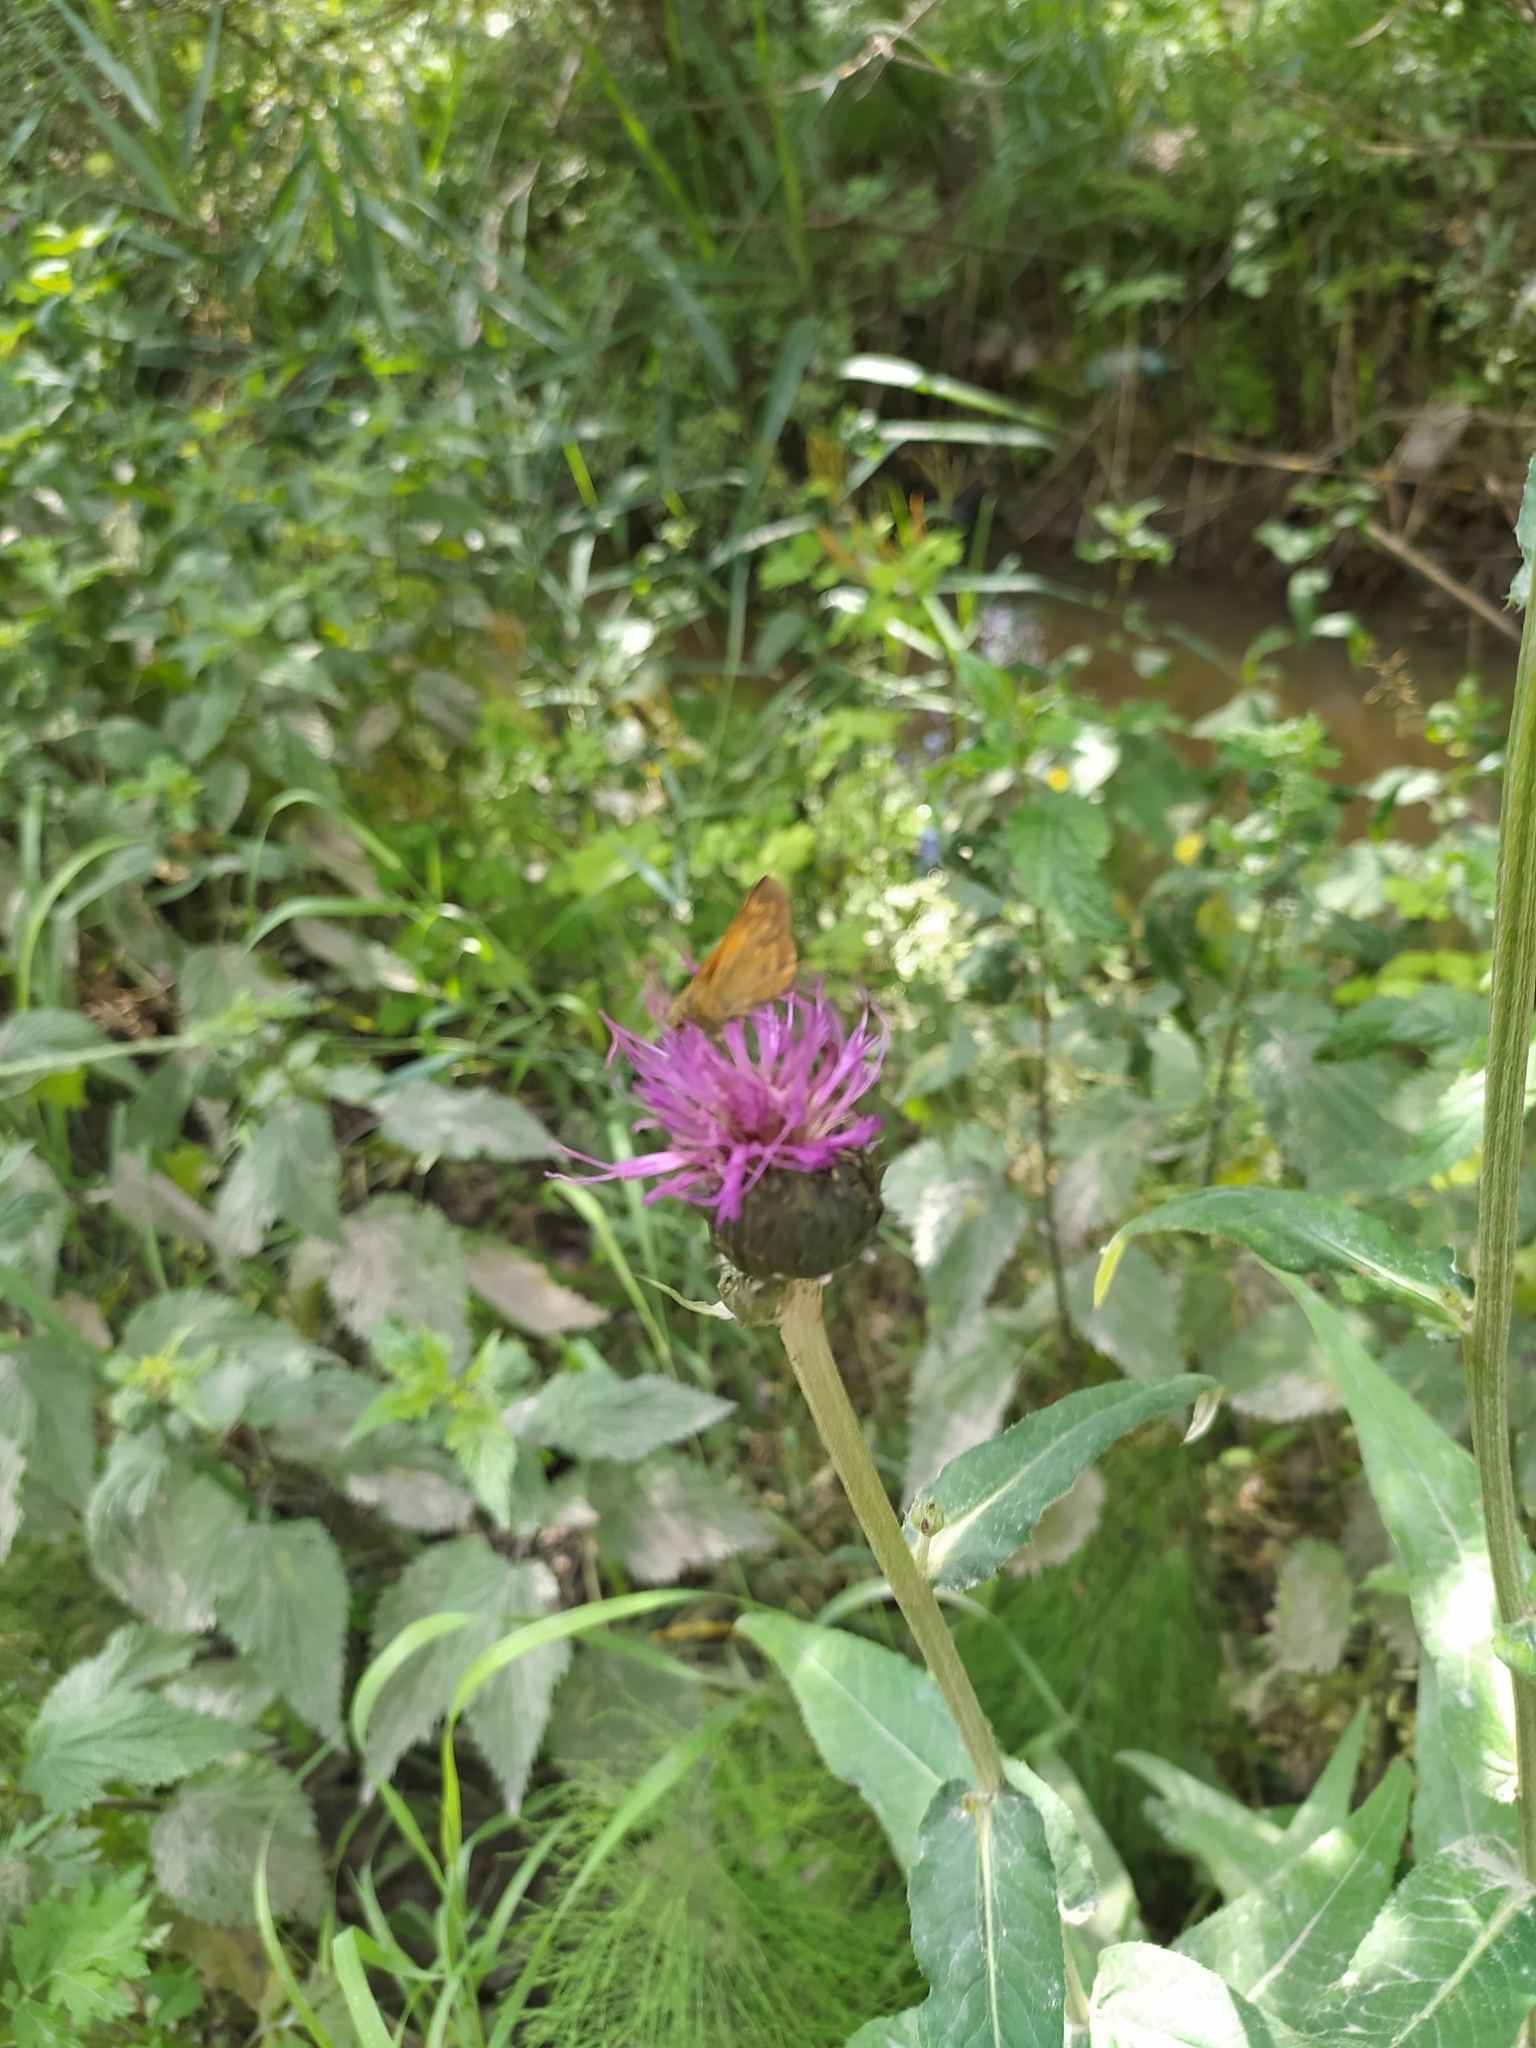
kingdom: Plantae
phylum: Tracheophyta
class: Magnoliopsida
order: Asterales
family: Asteraceae
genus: Cirsium
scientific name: Cirsium heterophyllum
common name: Melancholy thistle
